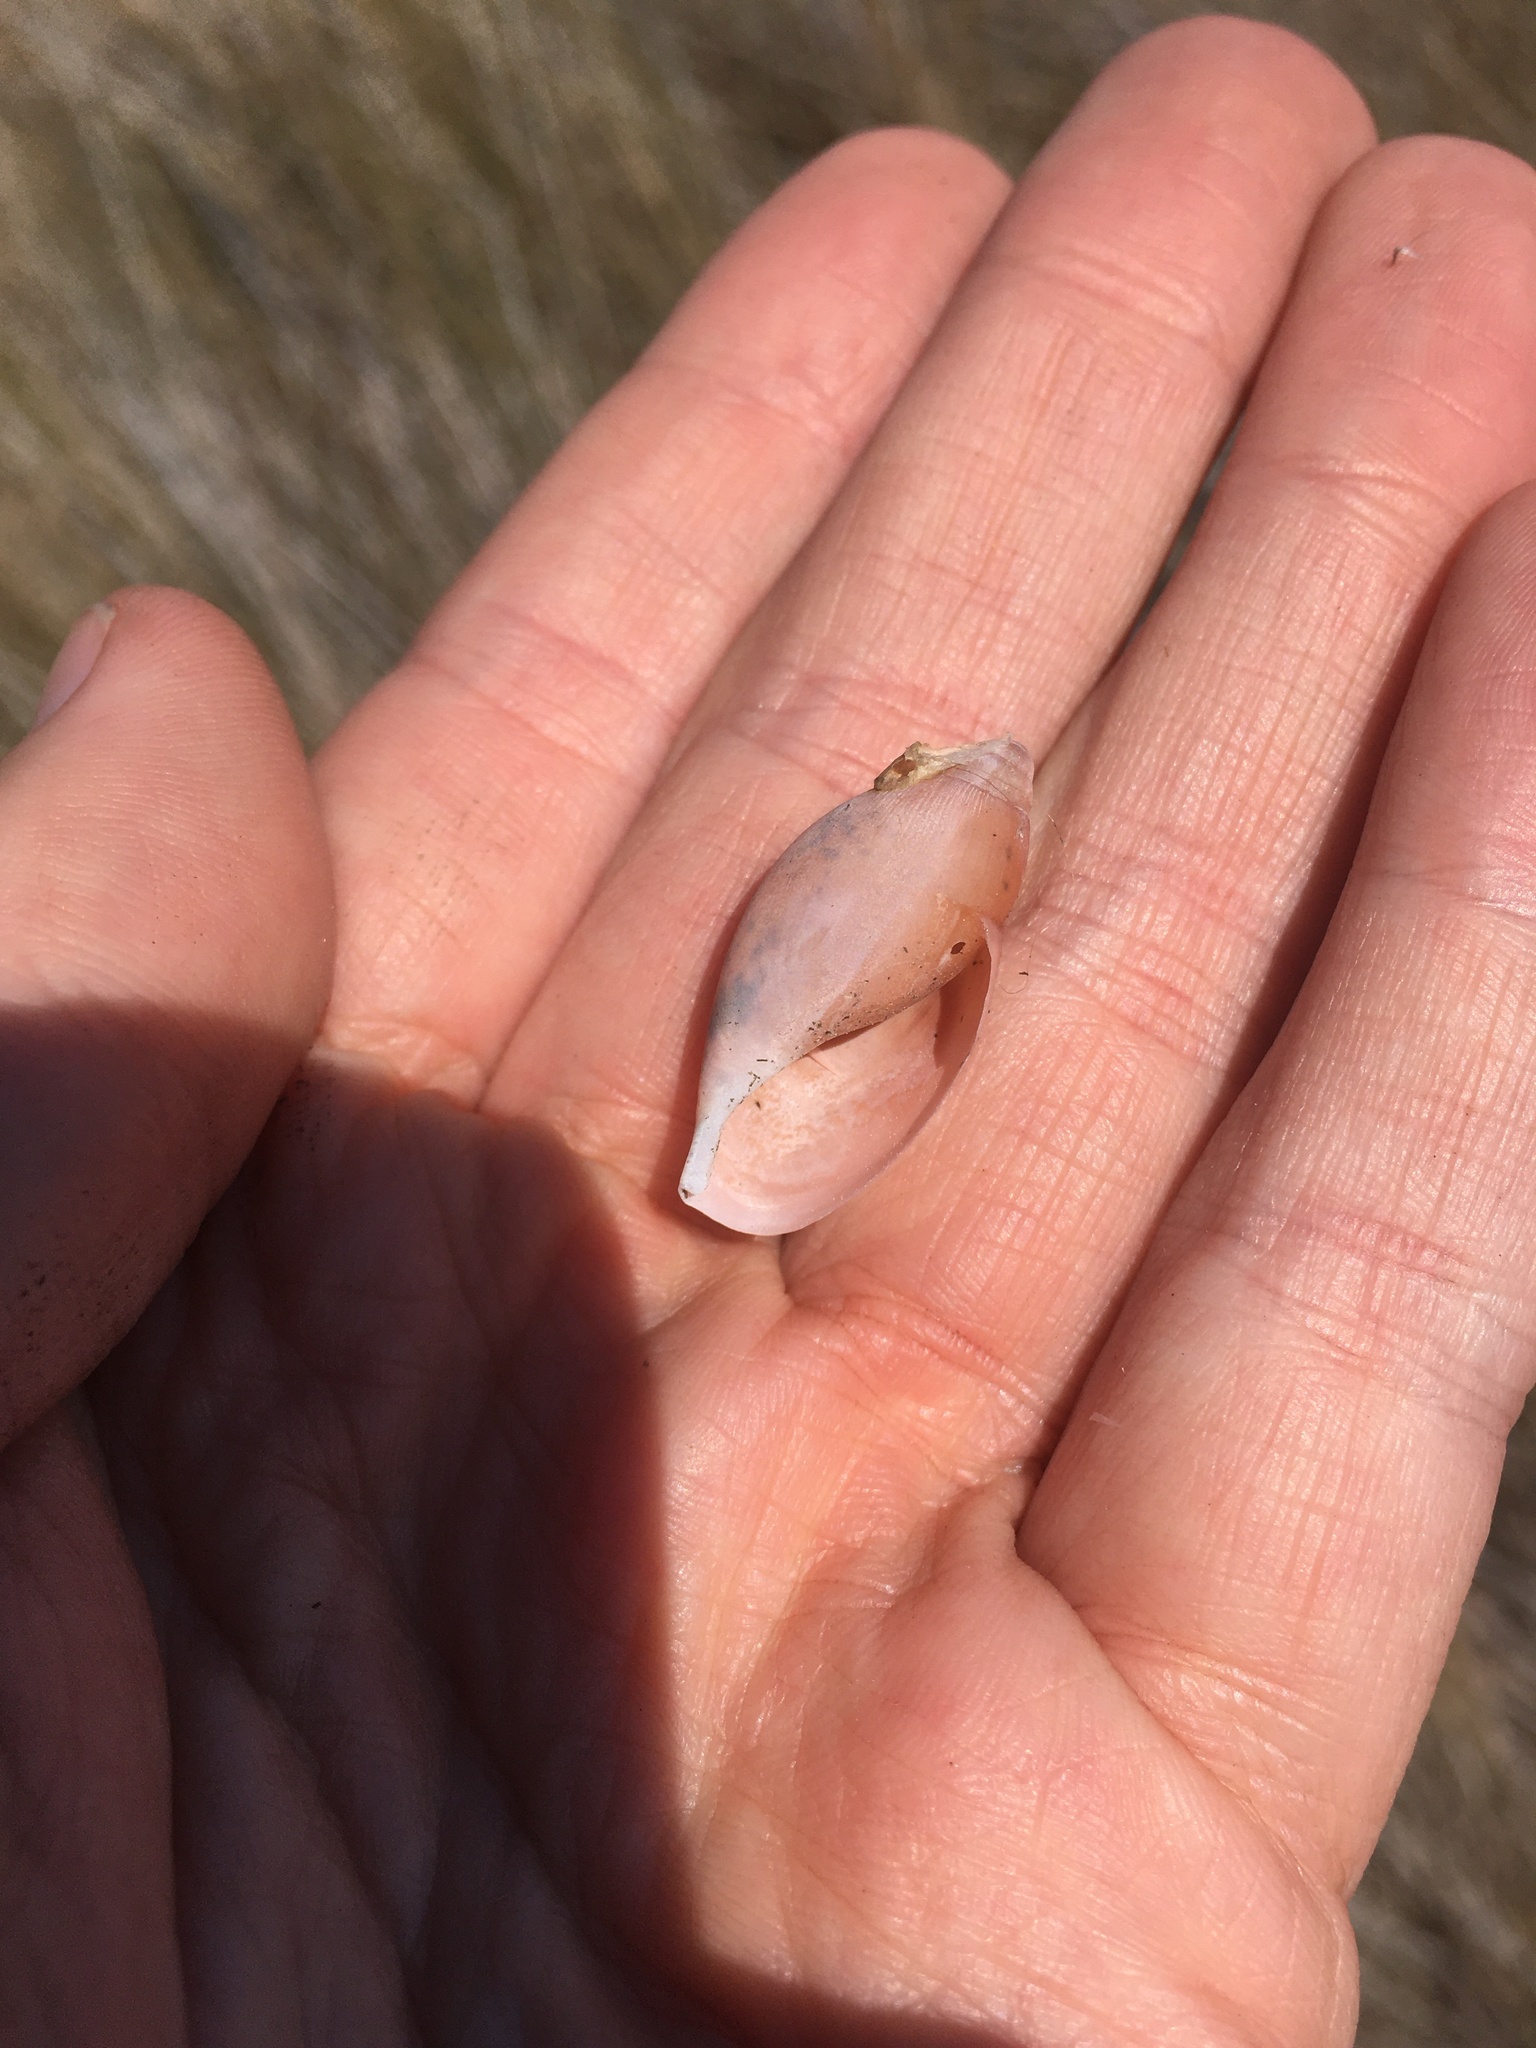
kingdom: Animalia
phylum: Mollusca
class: Gastropoda
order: Stylommatophora
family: Spiraxidae
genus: Euglandina
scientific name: Euglandina rosea
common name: Rosy wolfsnail
